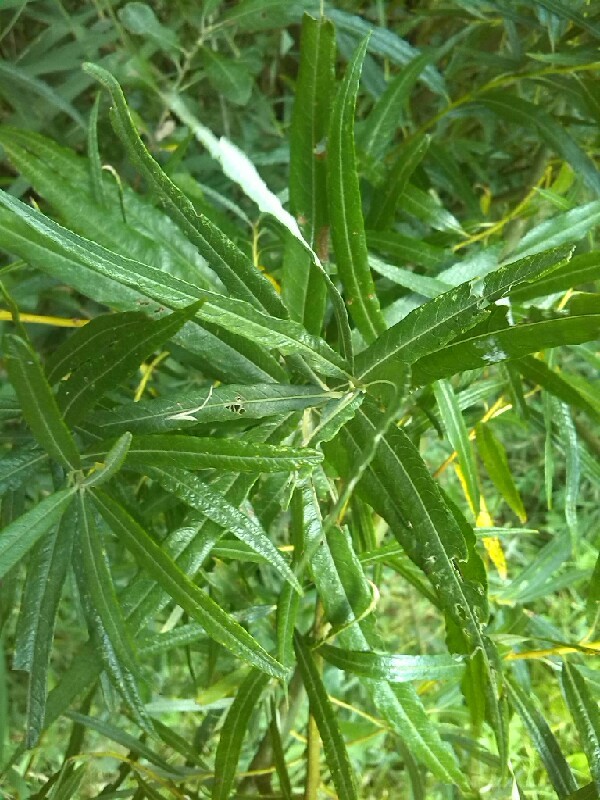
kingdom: Plantae
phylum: Tracheophyta
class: Magnoliopsida
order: Malpighiales
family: Salicaceae
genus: Salix
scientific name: Salix viminalis
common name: Osier
